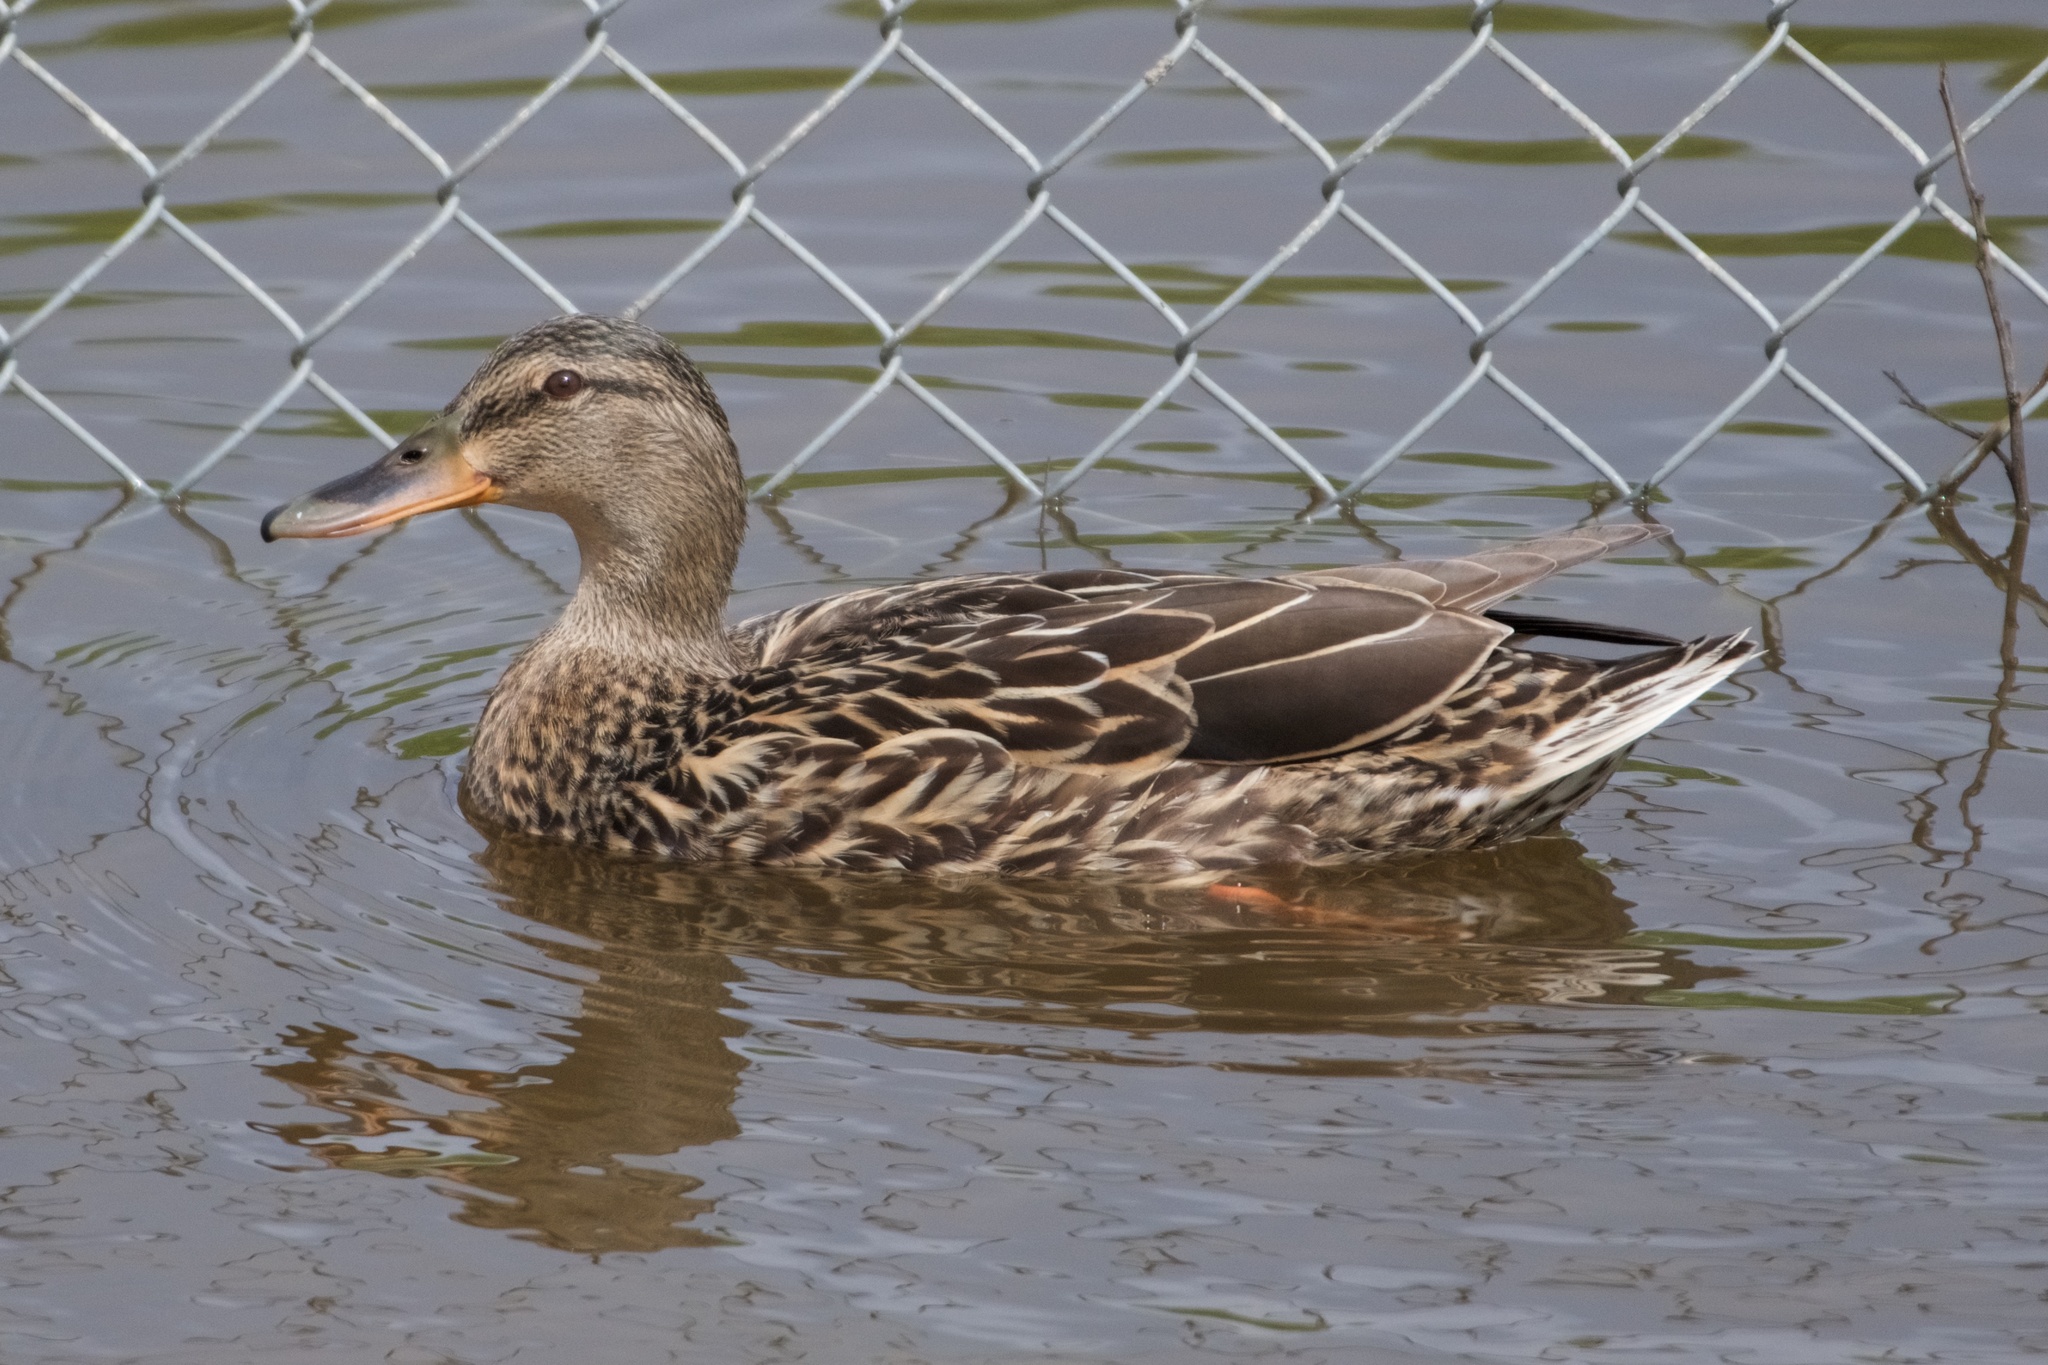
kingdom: Animalia
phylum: Chordata
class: Aves
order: Anseriformes
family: Anatidae
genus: Anas
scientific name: Anas platyrhynchos
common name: Mallard
